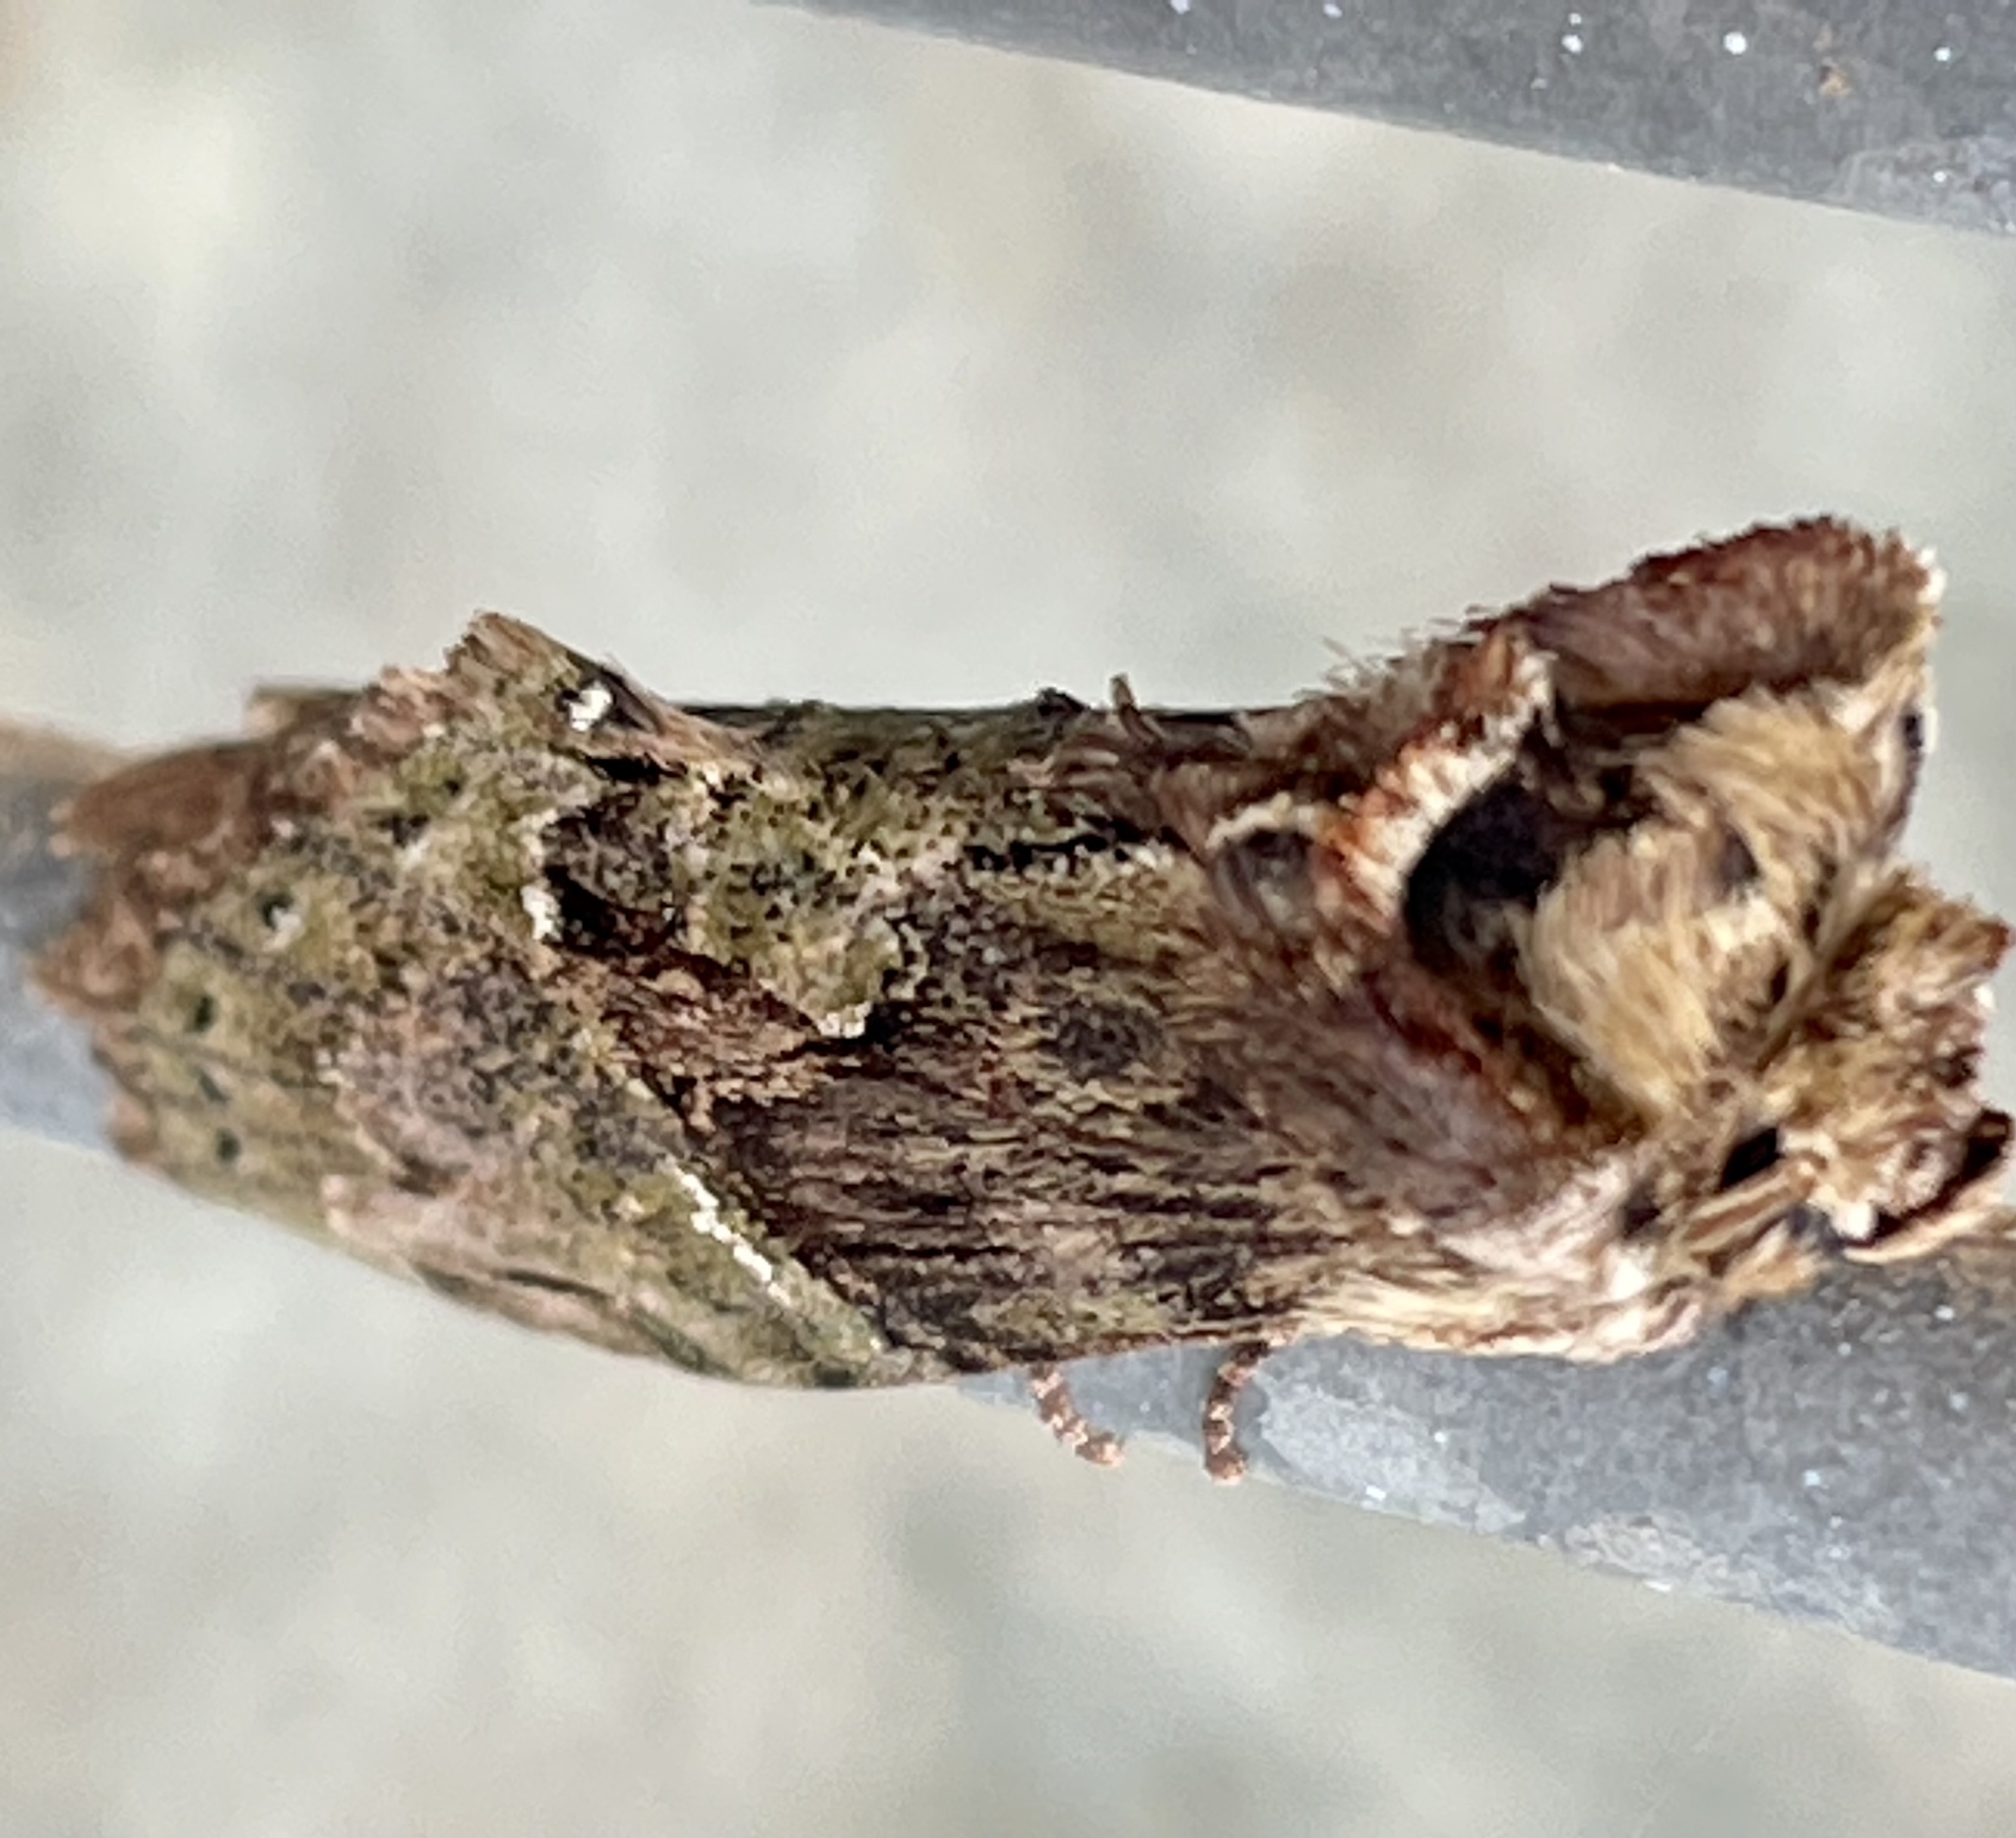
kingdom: Animalia
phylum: Arthropoda
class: Insecta
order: Lepidoptera
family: Notodontidae
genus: Chadisra
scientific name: Chadisra Antithemerastis acrobela
